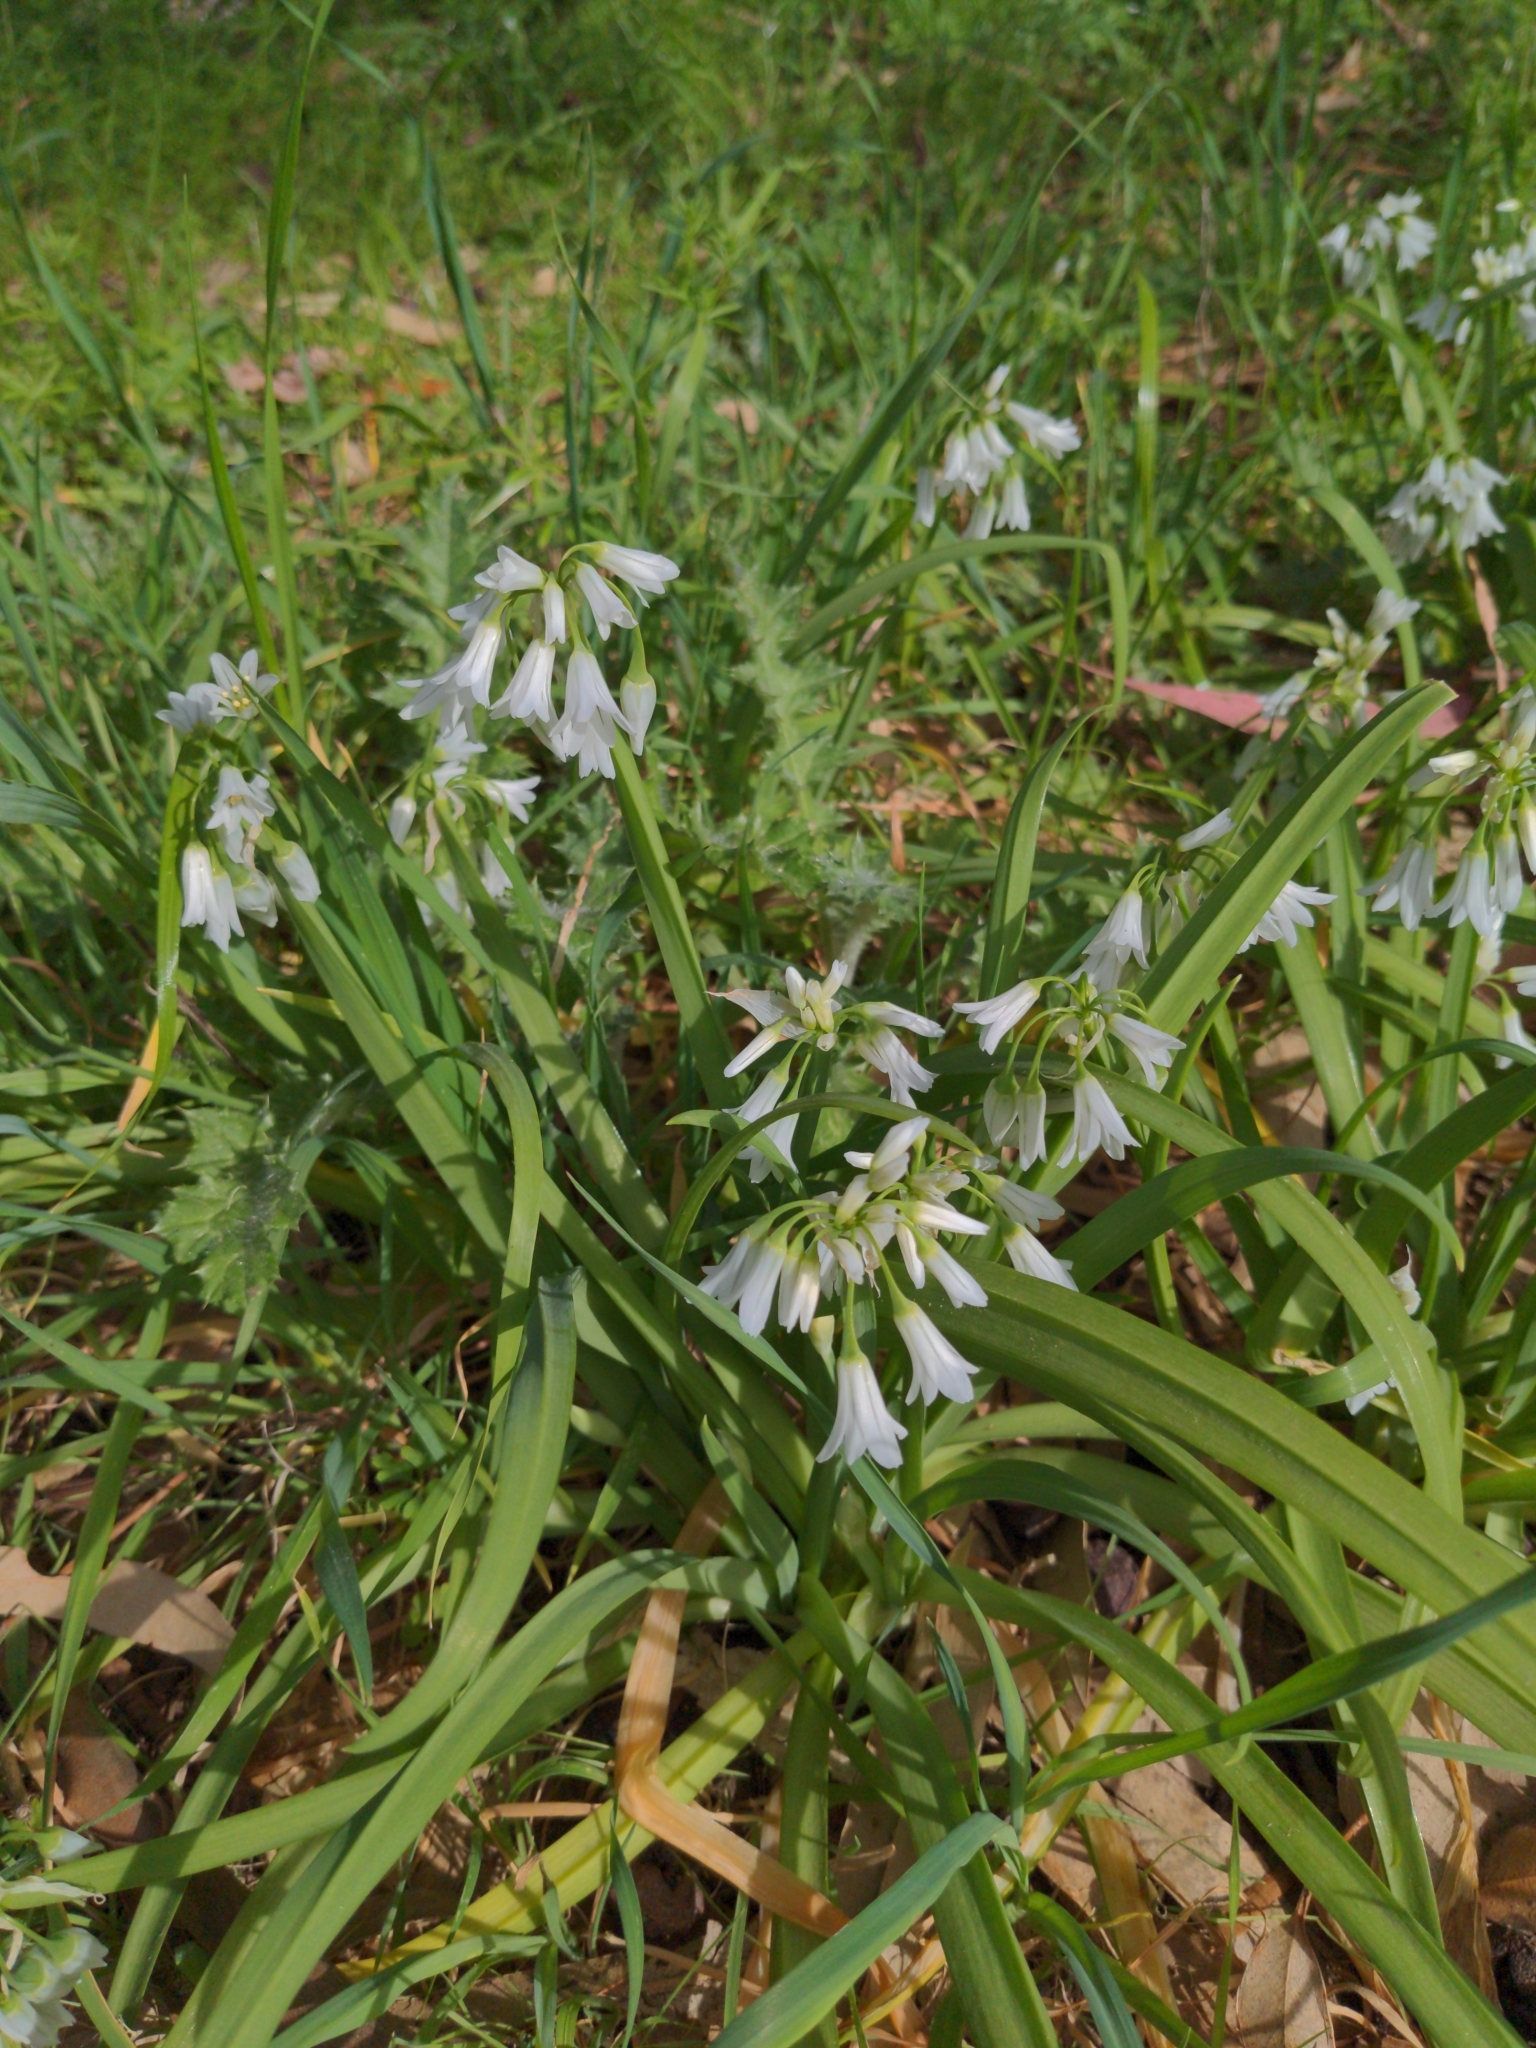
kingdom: Plantae
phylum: Tracheophyta
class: Liliopsida
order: Asparagales
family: Amaryllidaceae
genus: Allium
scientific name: Allium triquetrum
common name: Three-cornered garlic
